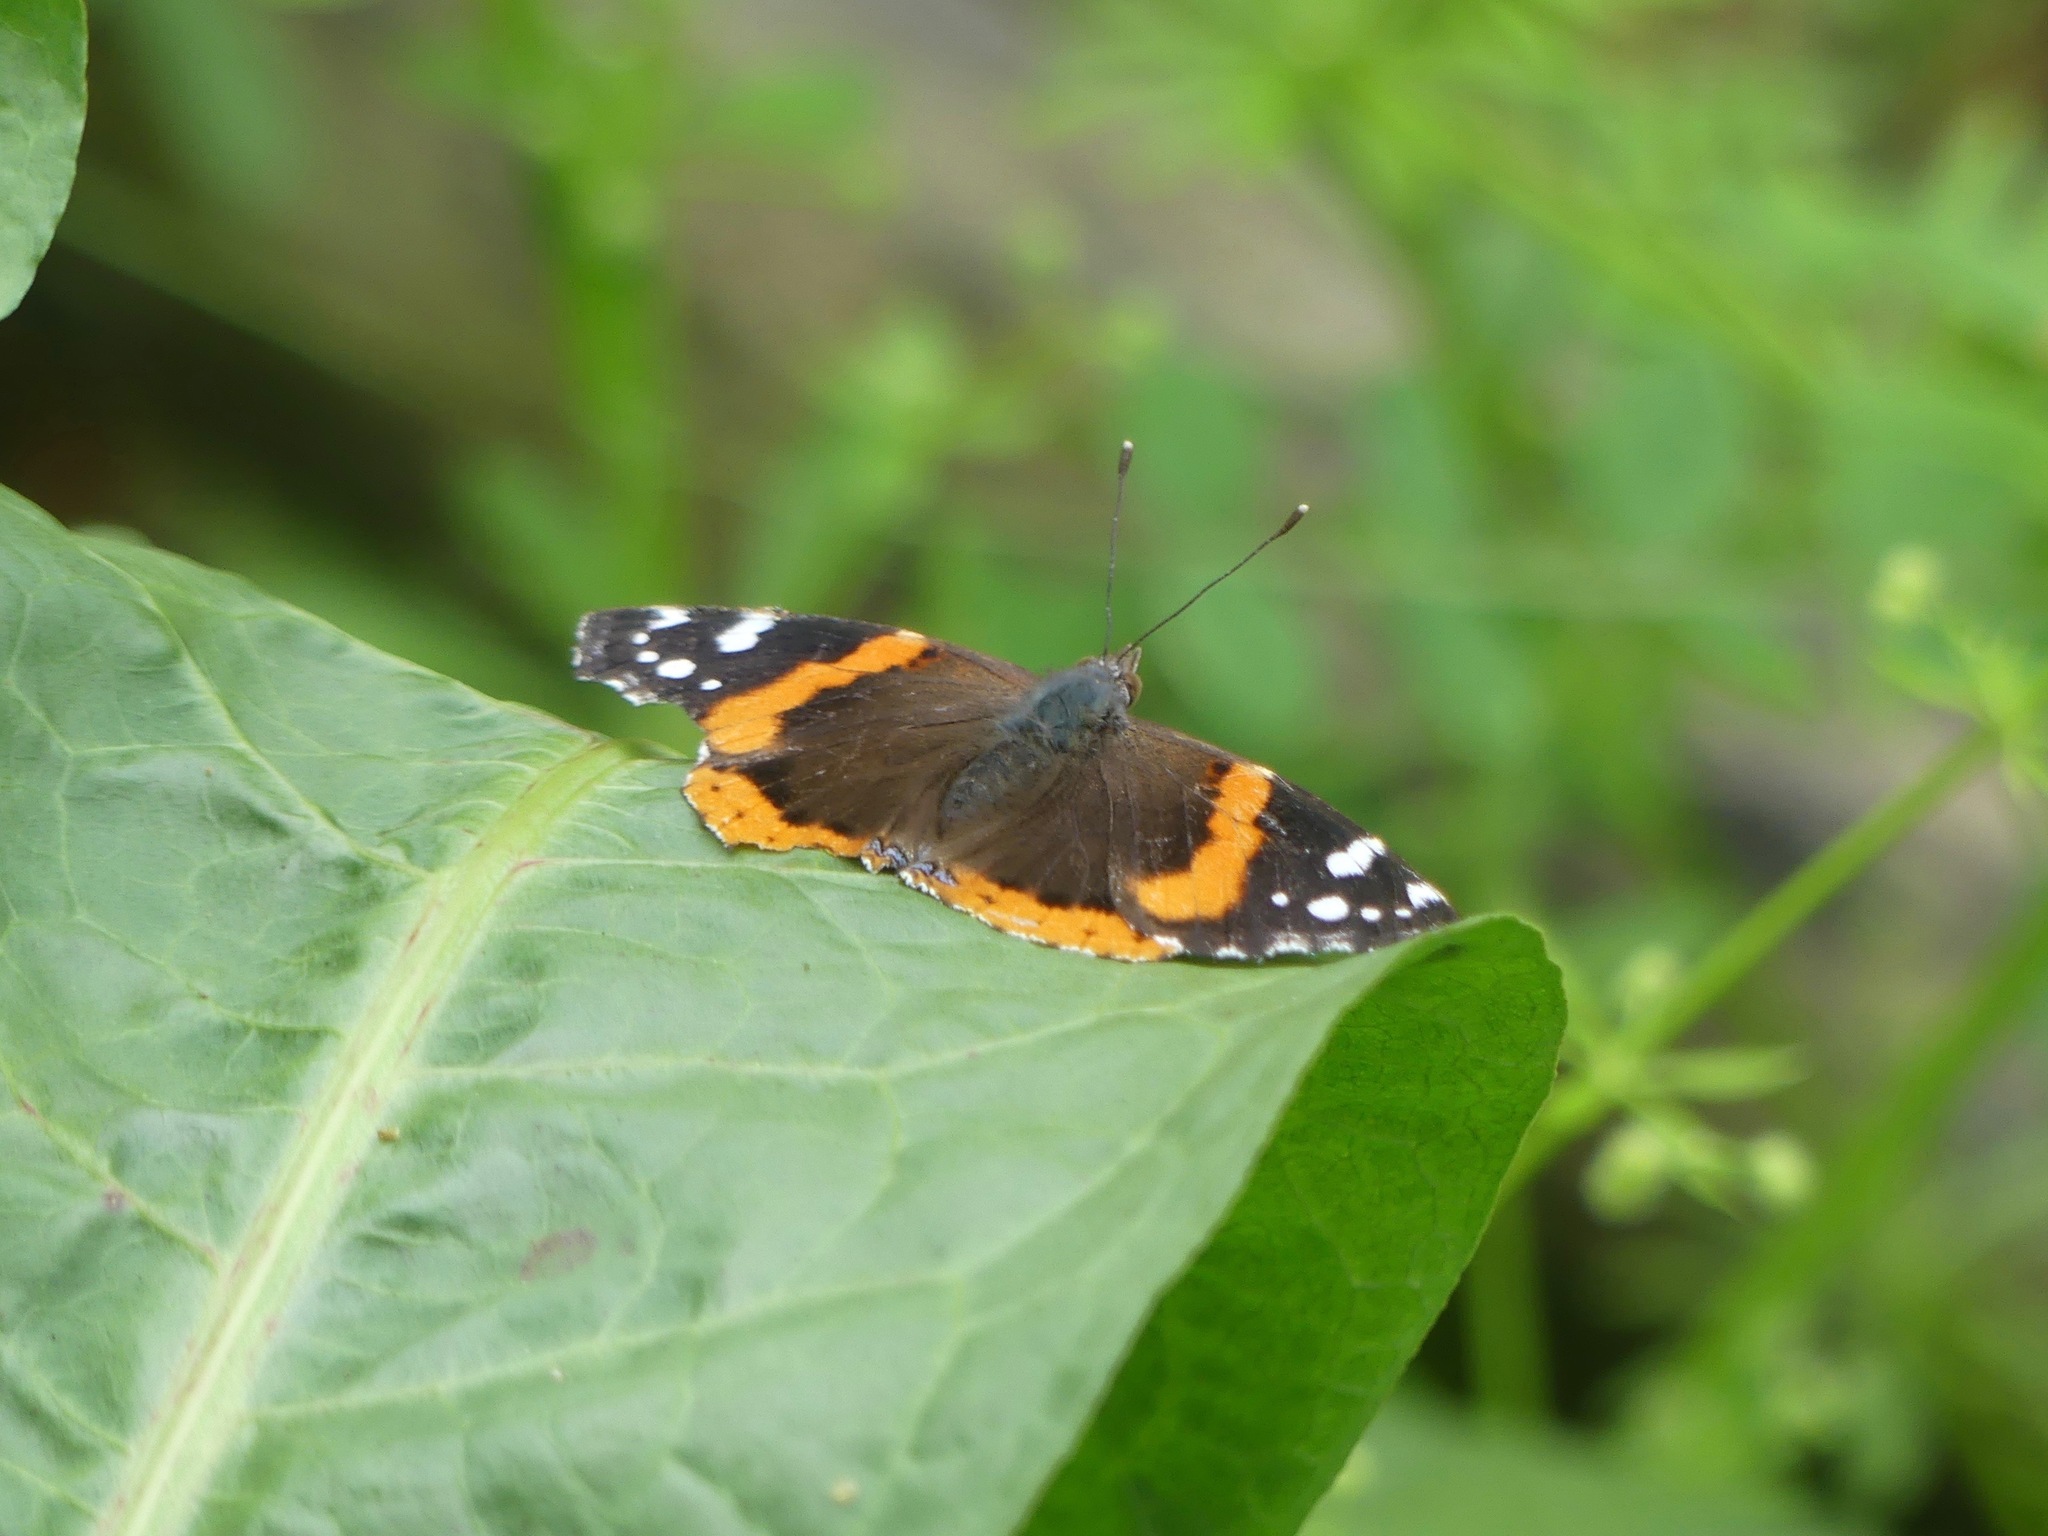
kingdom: Animalia
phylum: Arthropoda
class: Insecta
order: Lepidoptera
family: Nymphalidae
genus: Vanessa
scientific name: Vanessa atalanta
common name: Red admiral
